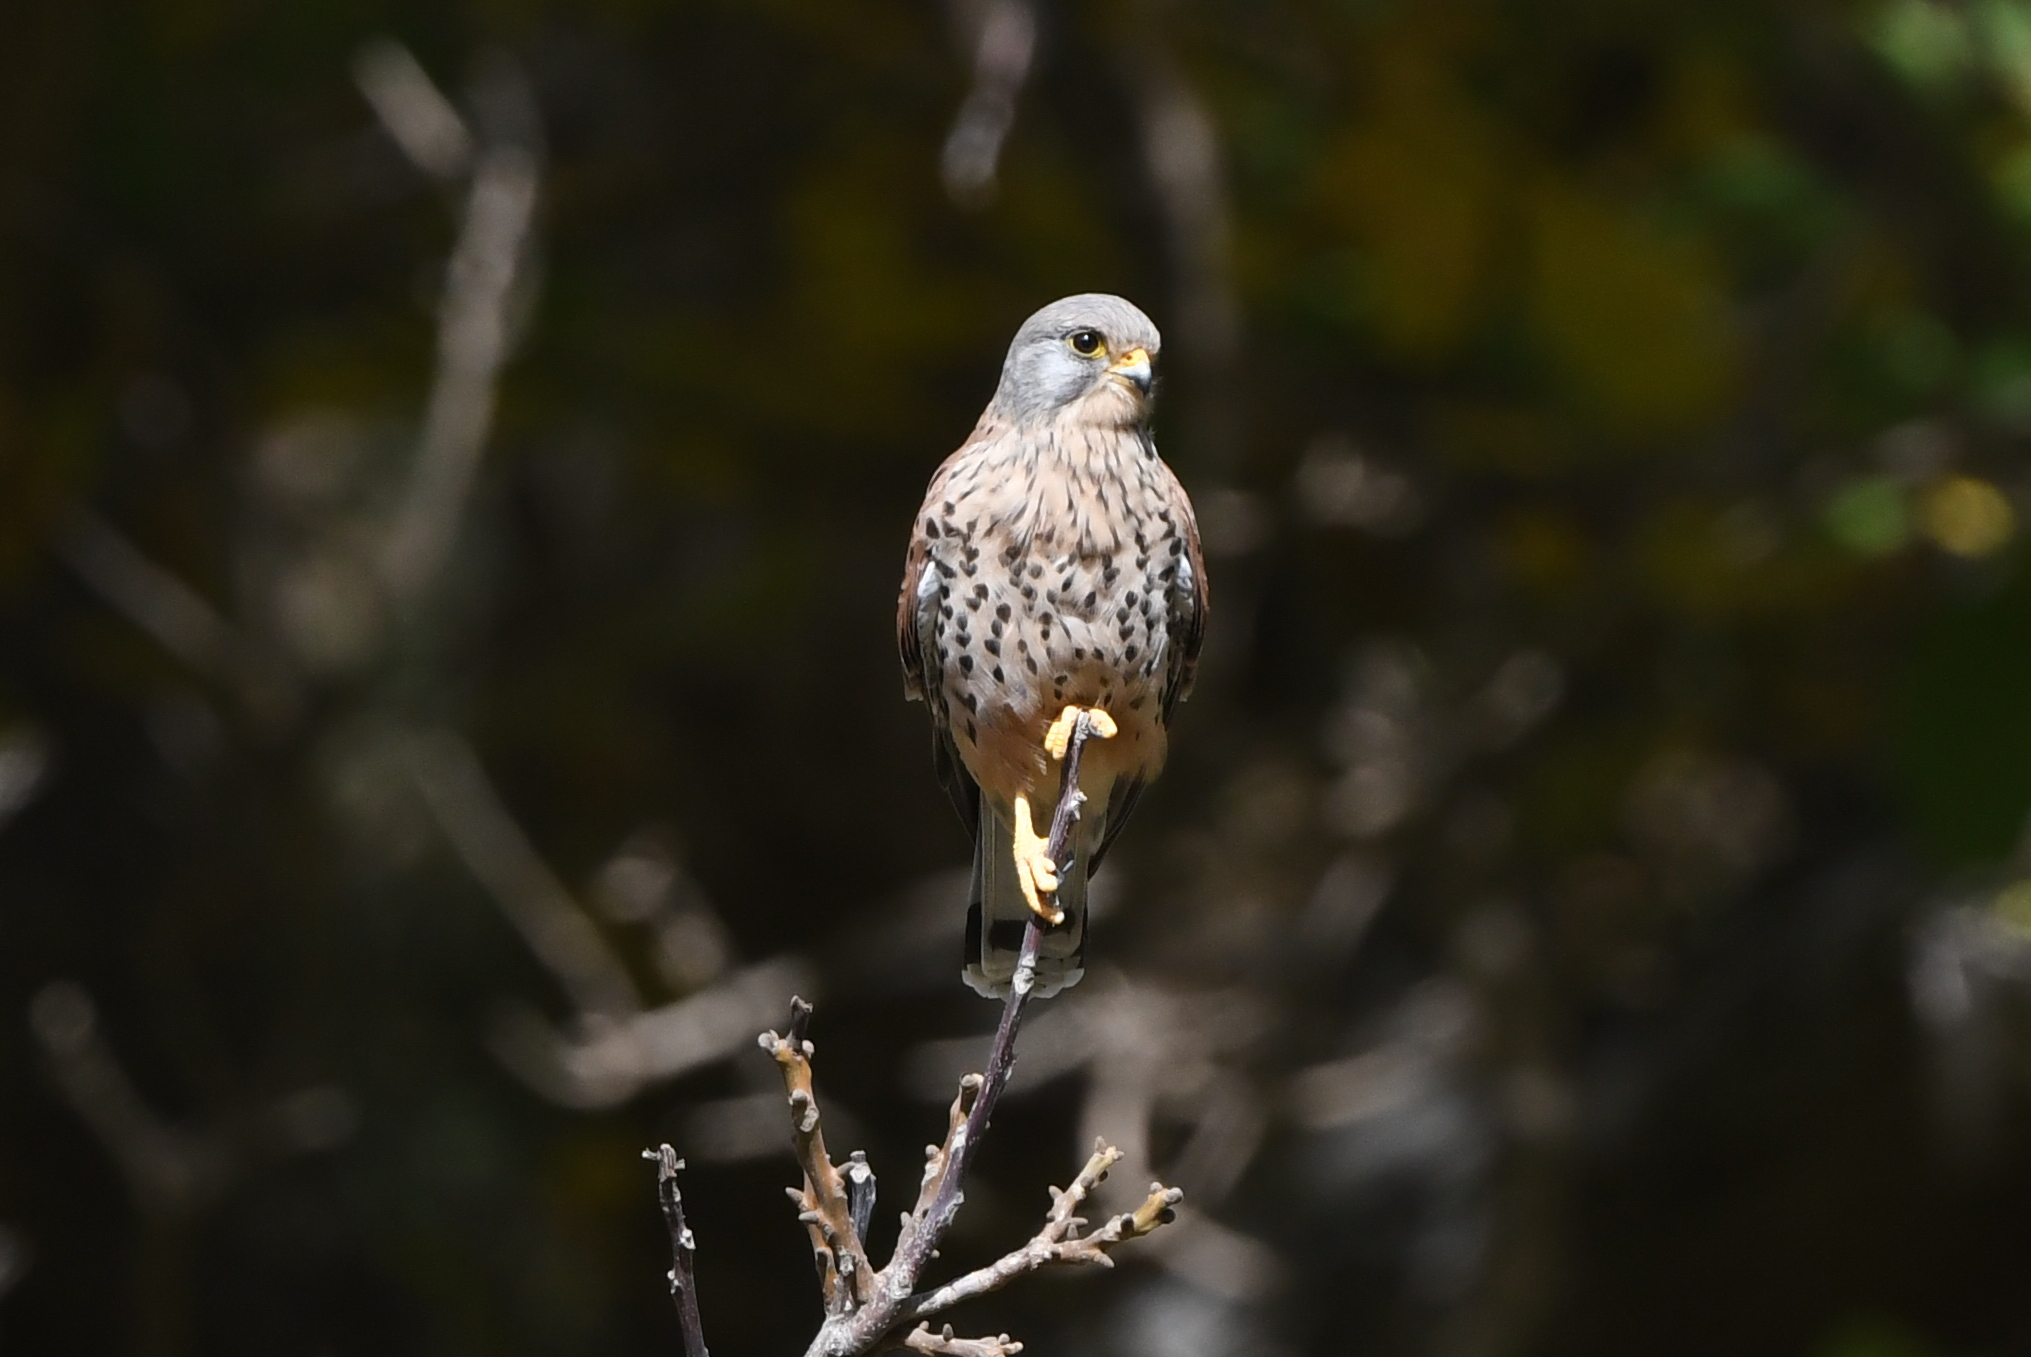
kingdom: Animalia
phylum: Chordata
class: Aves
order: Falconiformes
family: Falconidae
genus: Falco
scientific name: Falco tinnunculus
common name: Common kestrel
